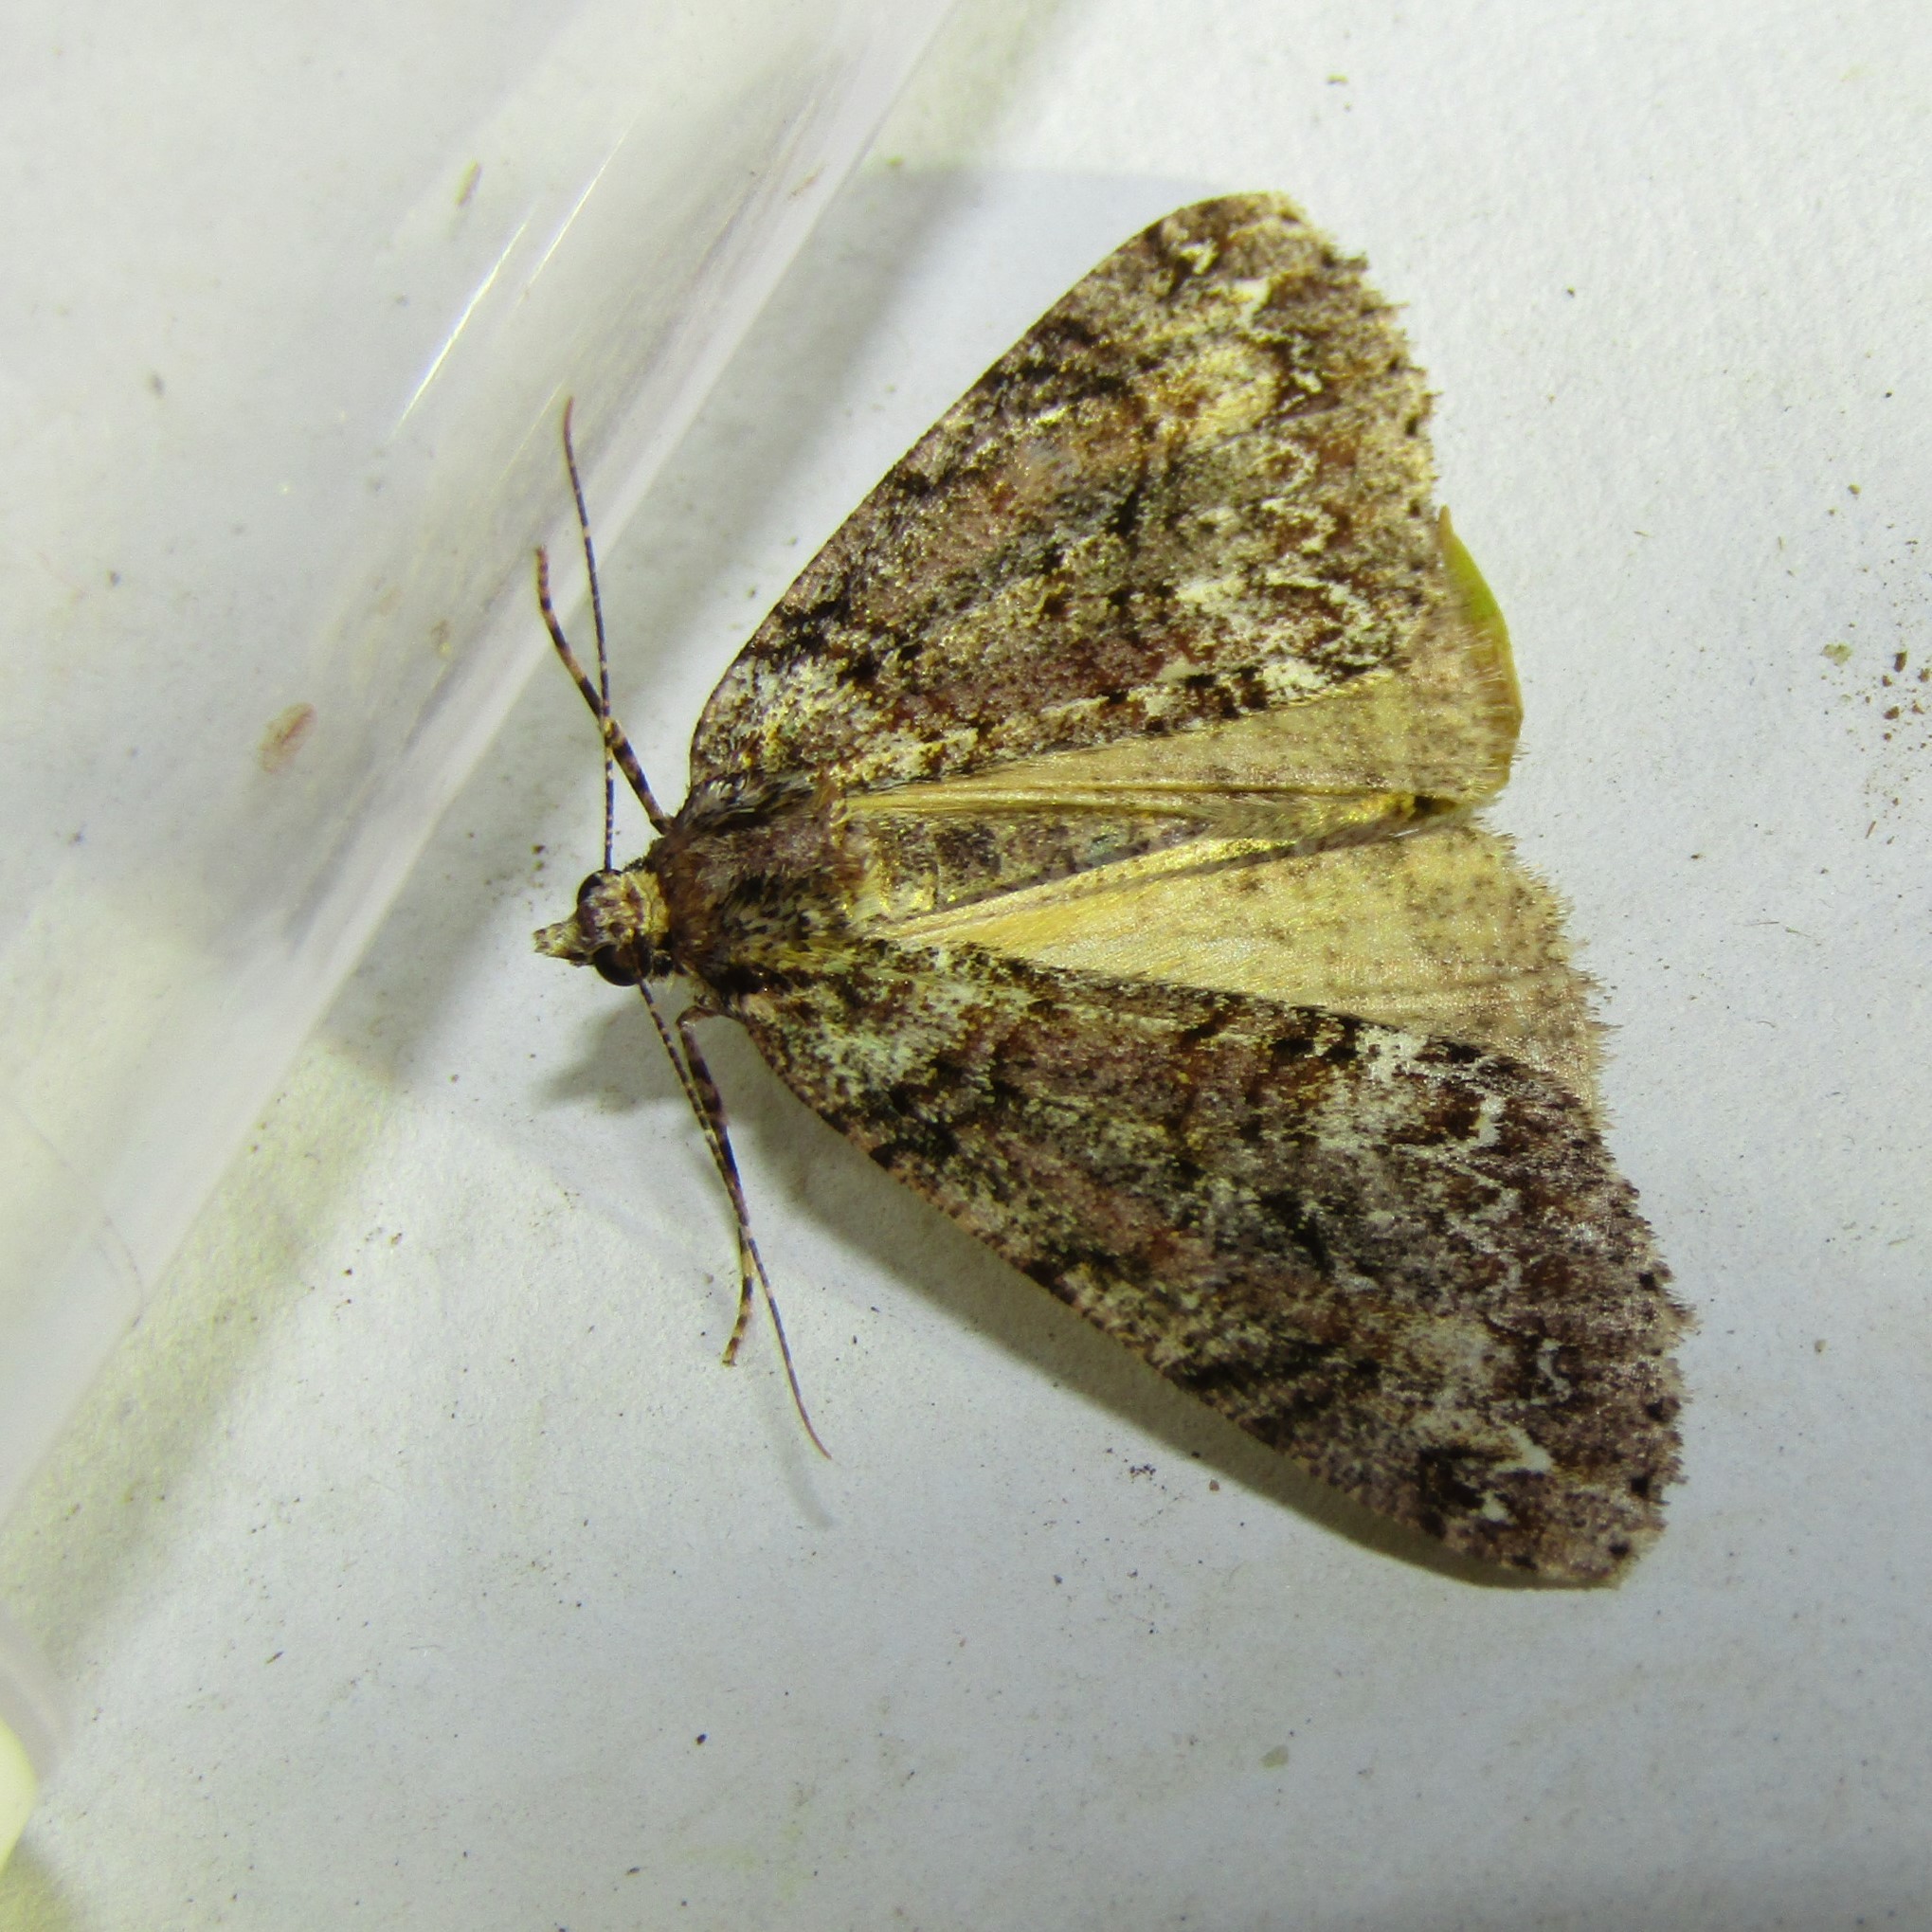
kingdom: Animalia
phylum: Arthropoda
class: Insecta
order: Lepidoptera
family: Geometridae
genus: Pseudocoremia
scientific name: Pseudocoremia suavis
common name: Common forest looper
